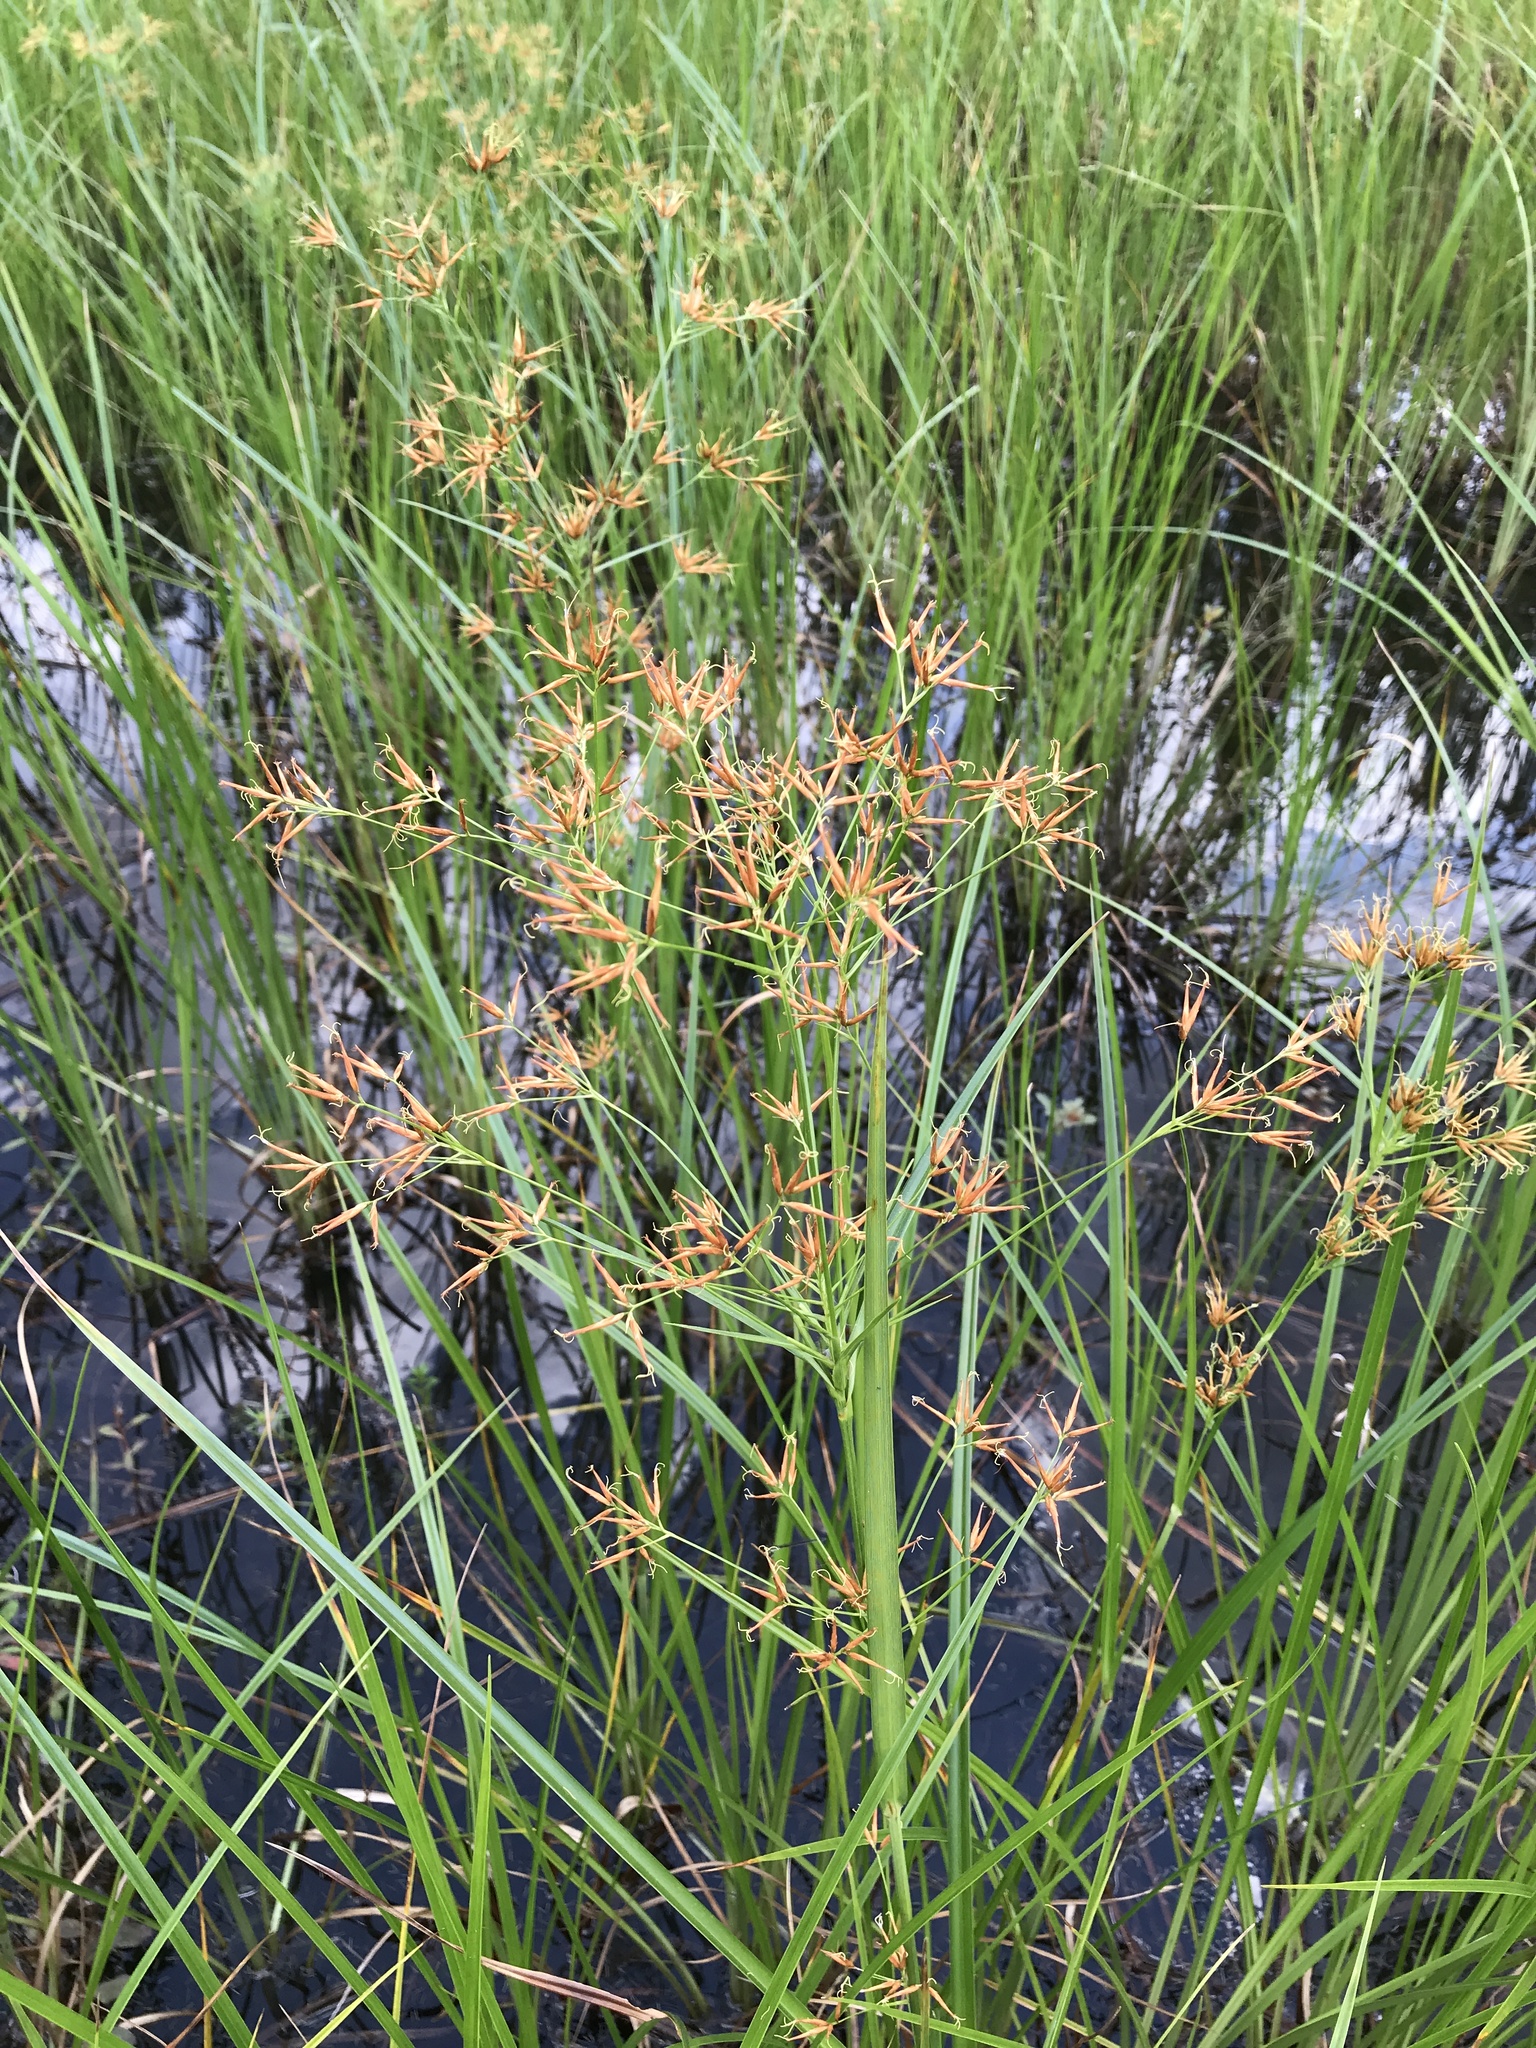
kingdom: Plantae
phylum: Tracheophyta
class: Liliopsida
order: Poales
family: Cyperaceae
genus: Rhynchospora
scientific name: Rhynchospora corniculata
